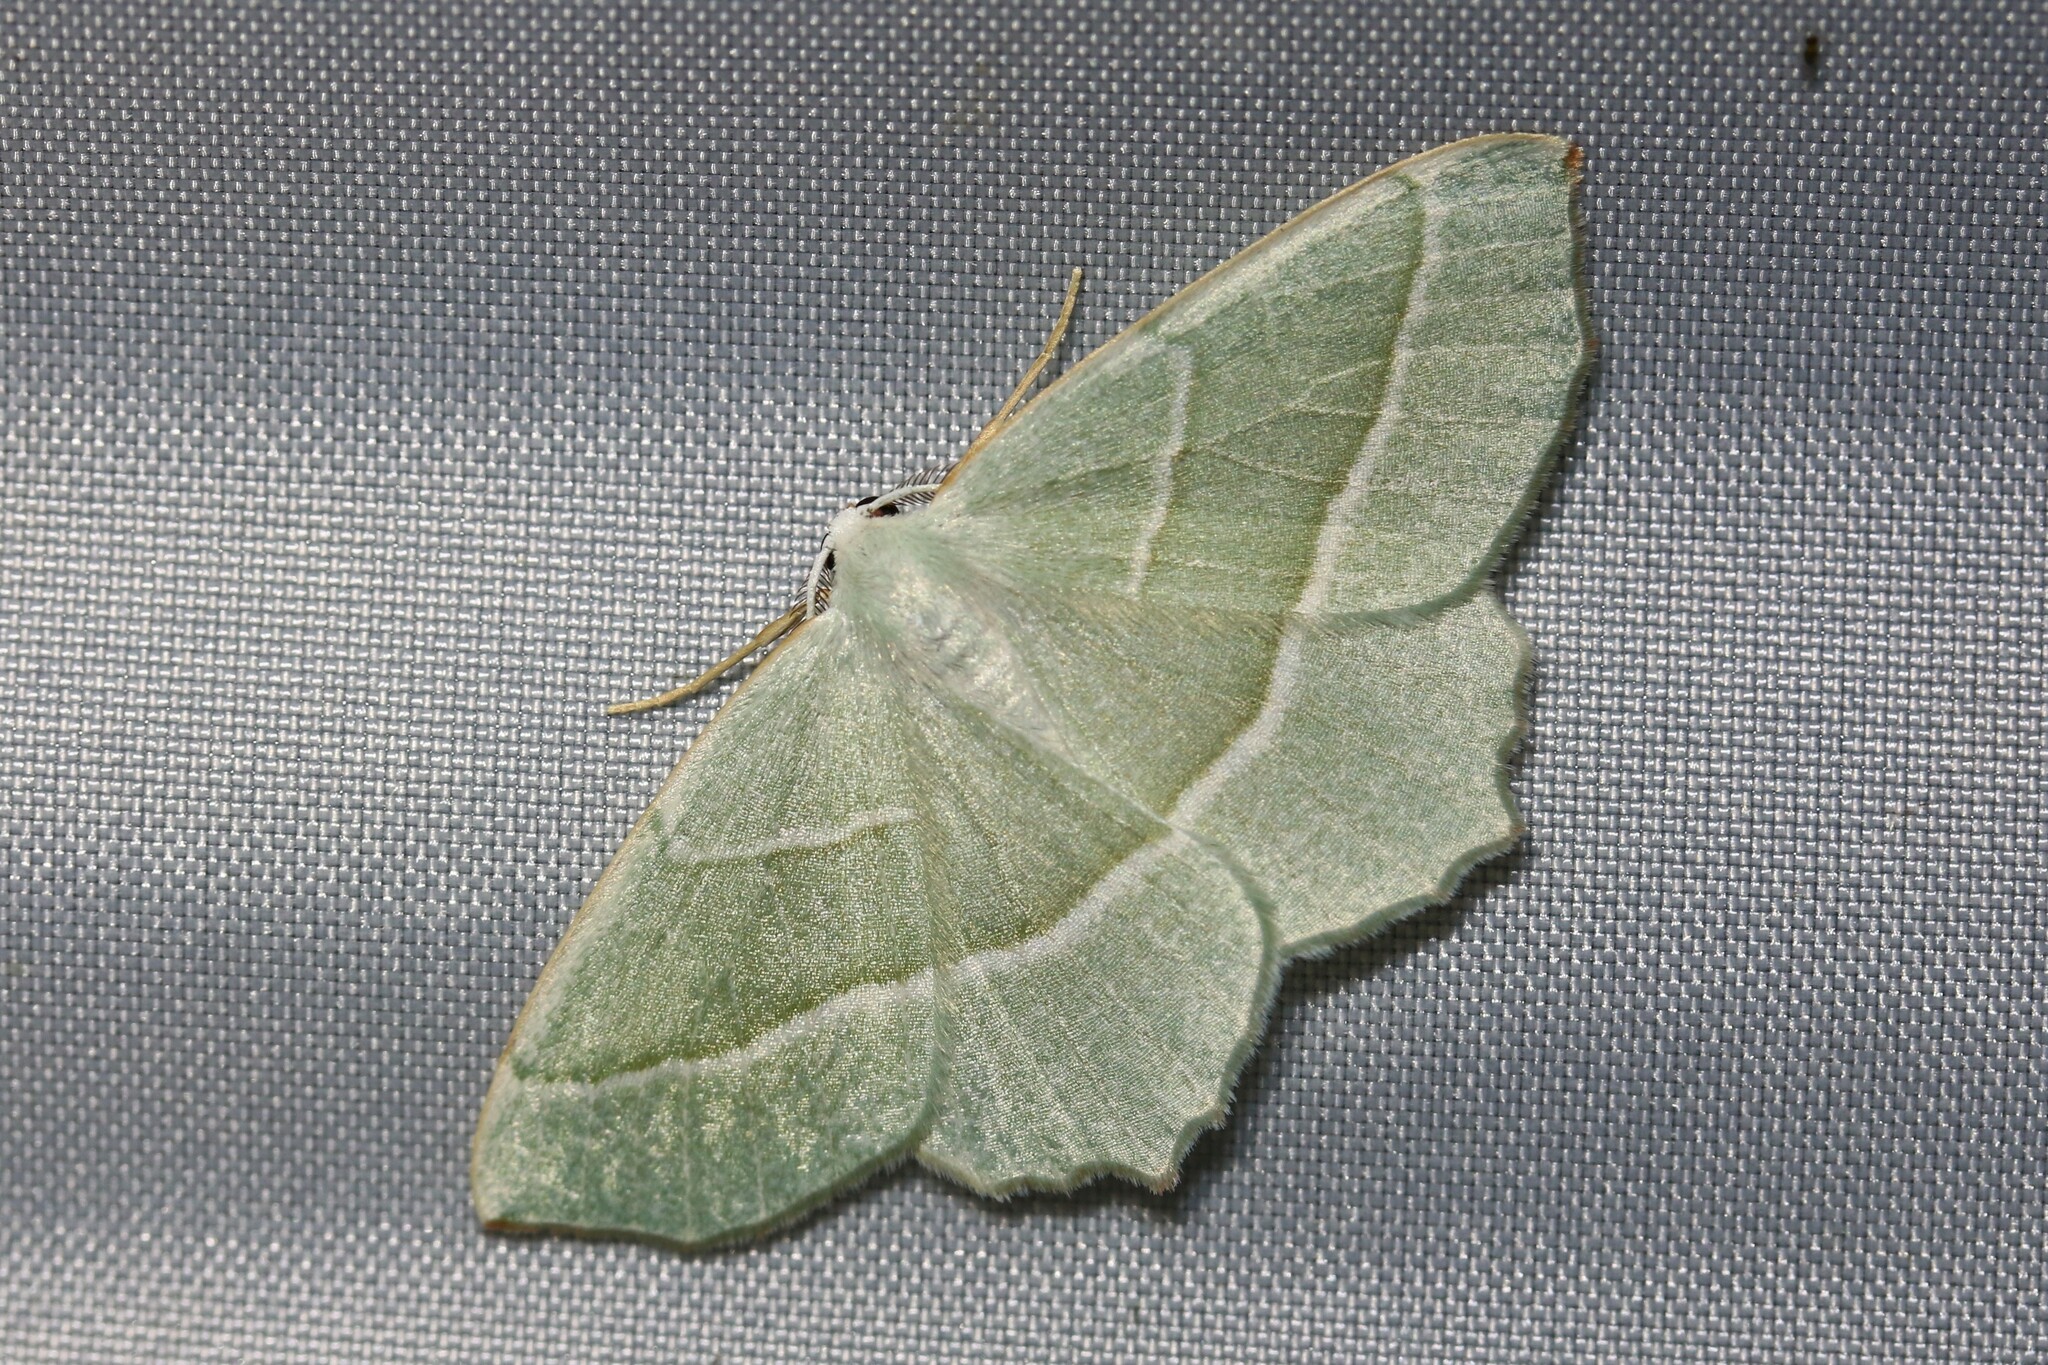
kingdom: Animalia
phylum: Arthropoda
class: Insecta
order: Lepidoptera
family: Geometridae
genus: Campaea
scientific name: Campaea margaritaria
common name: Light emerald
